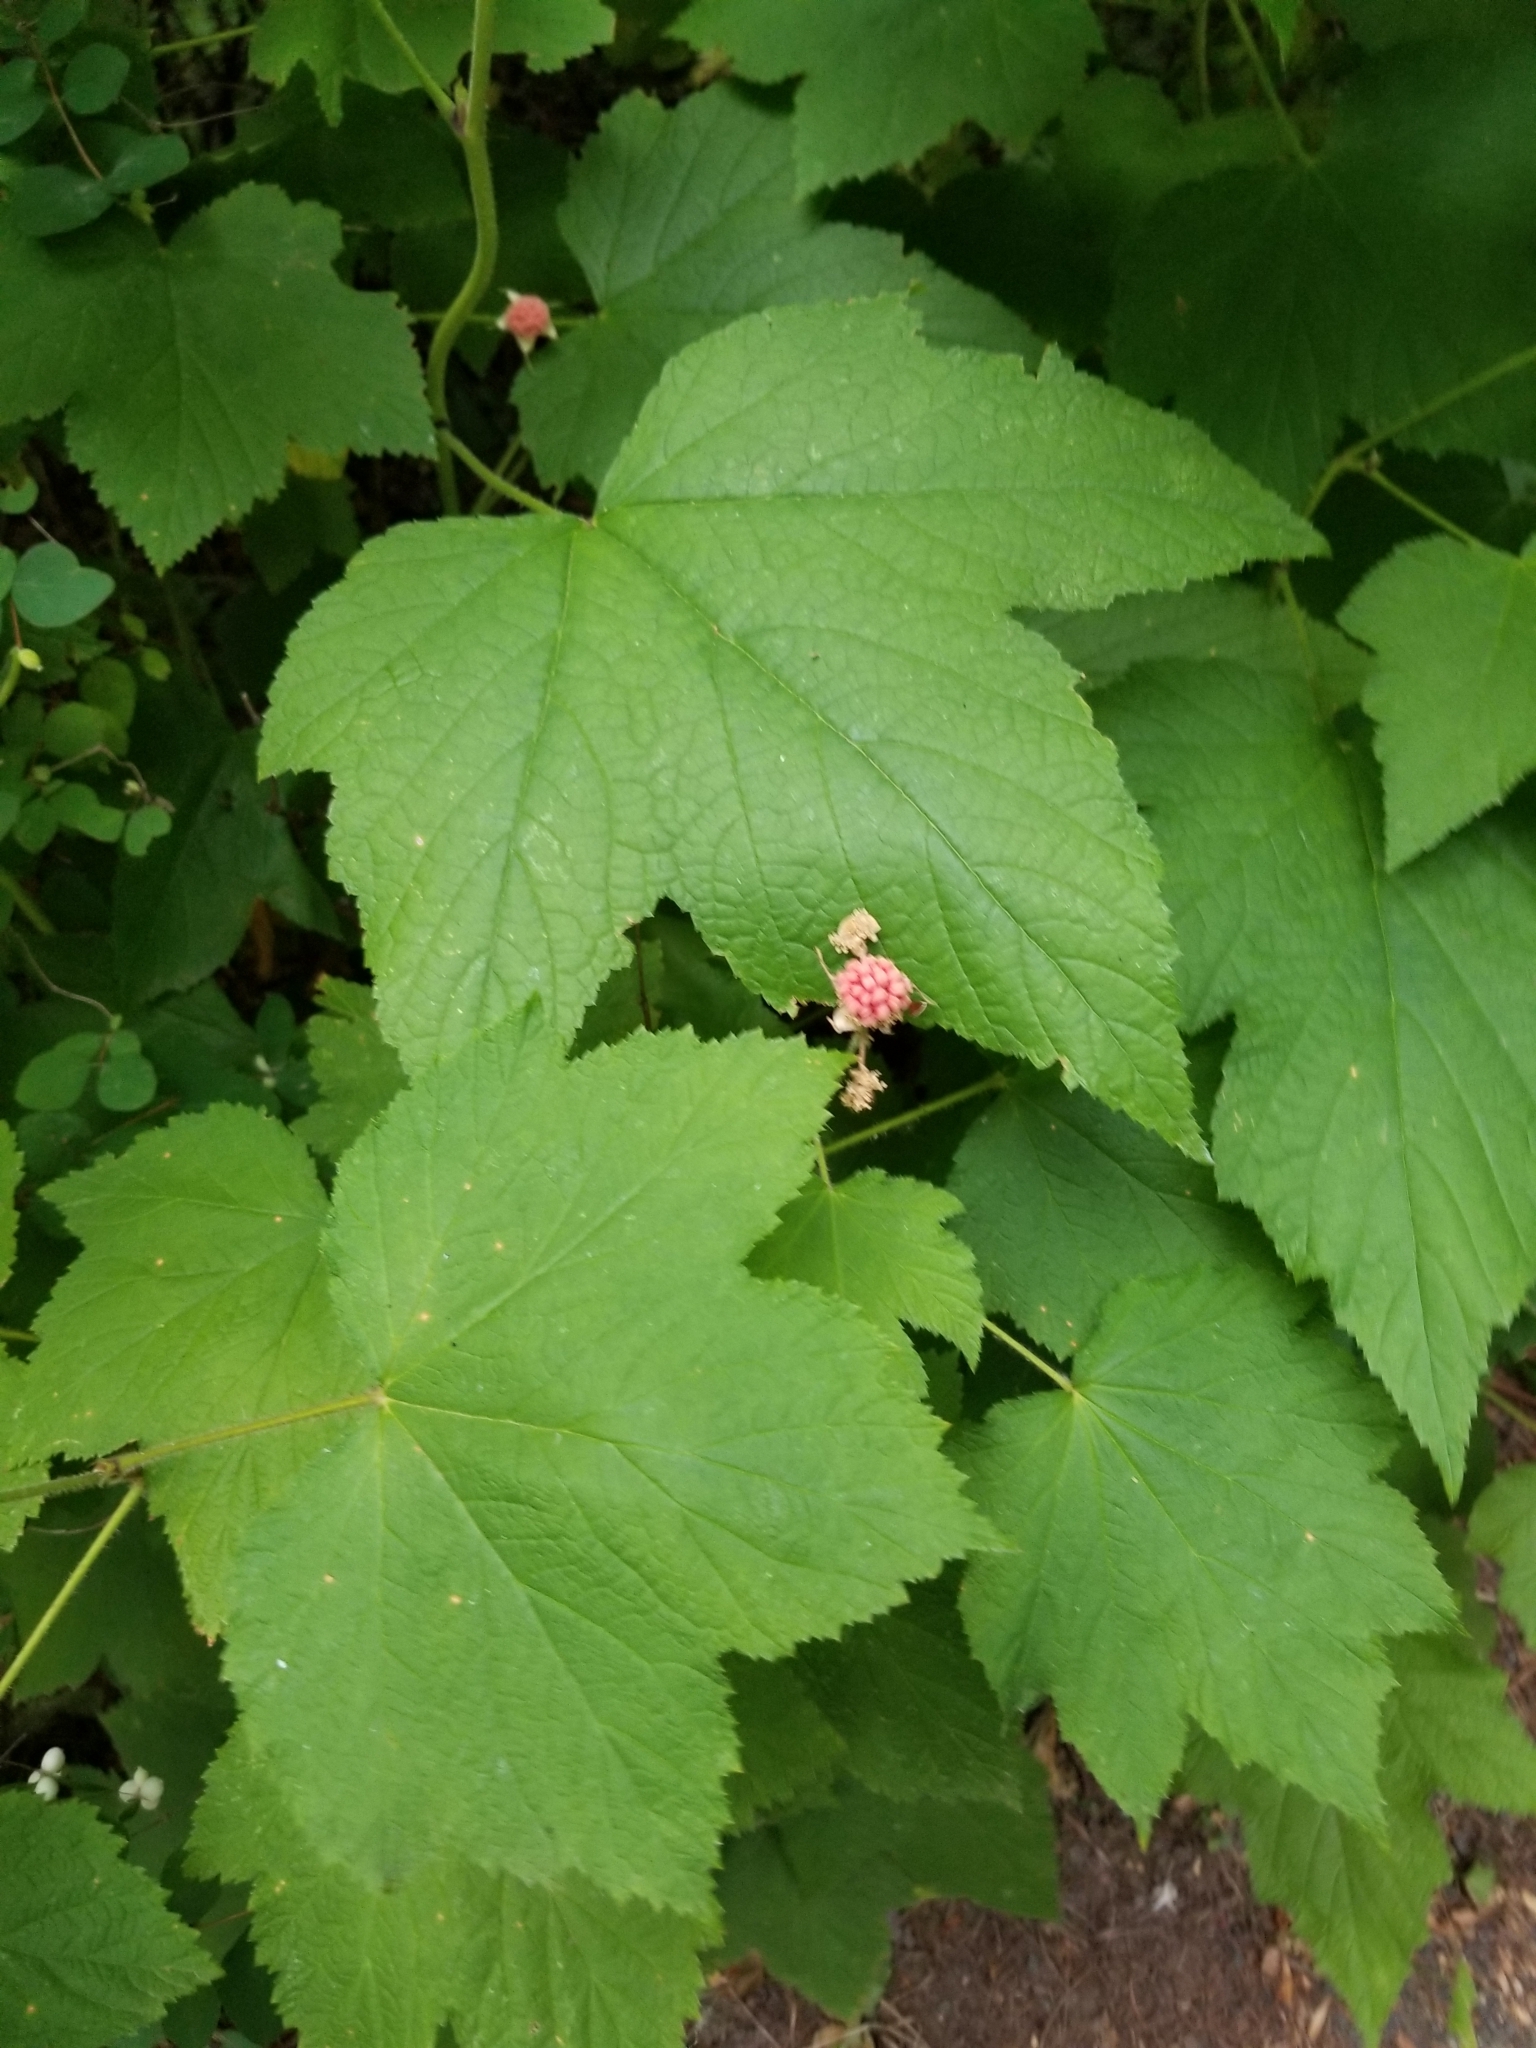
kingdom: Plantae
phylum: Tracheophyta
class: Magnoliopsida
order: Rosales
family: Rosaceae
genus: Rubus
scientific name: Rubus parviflorus
